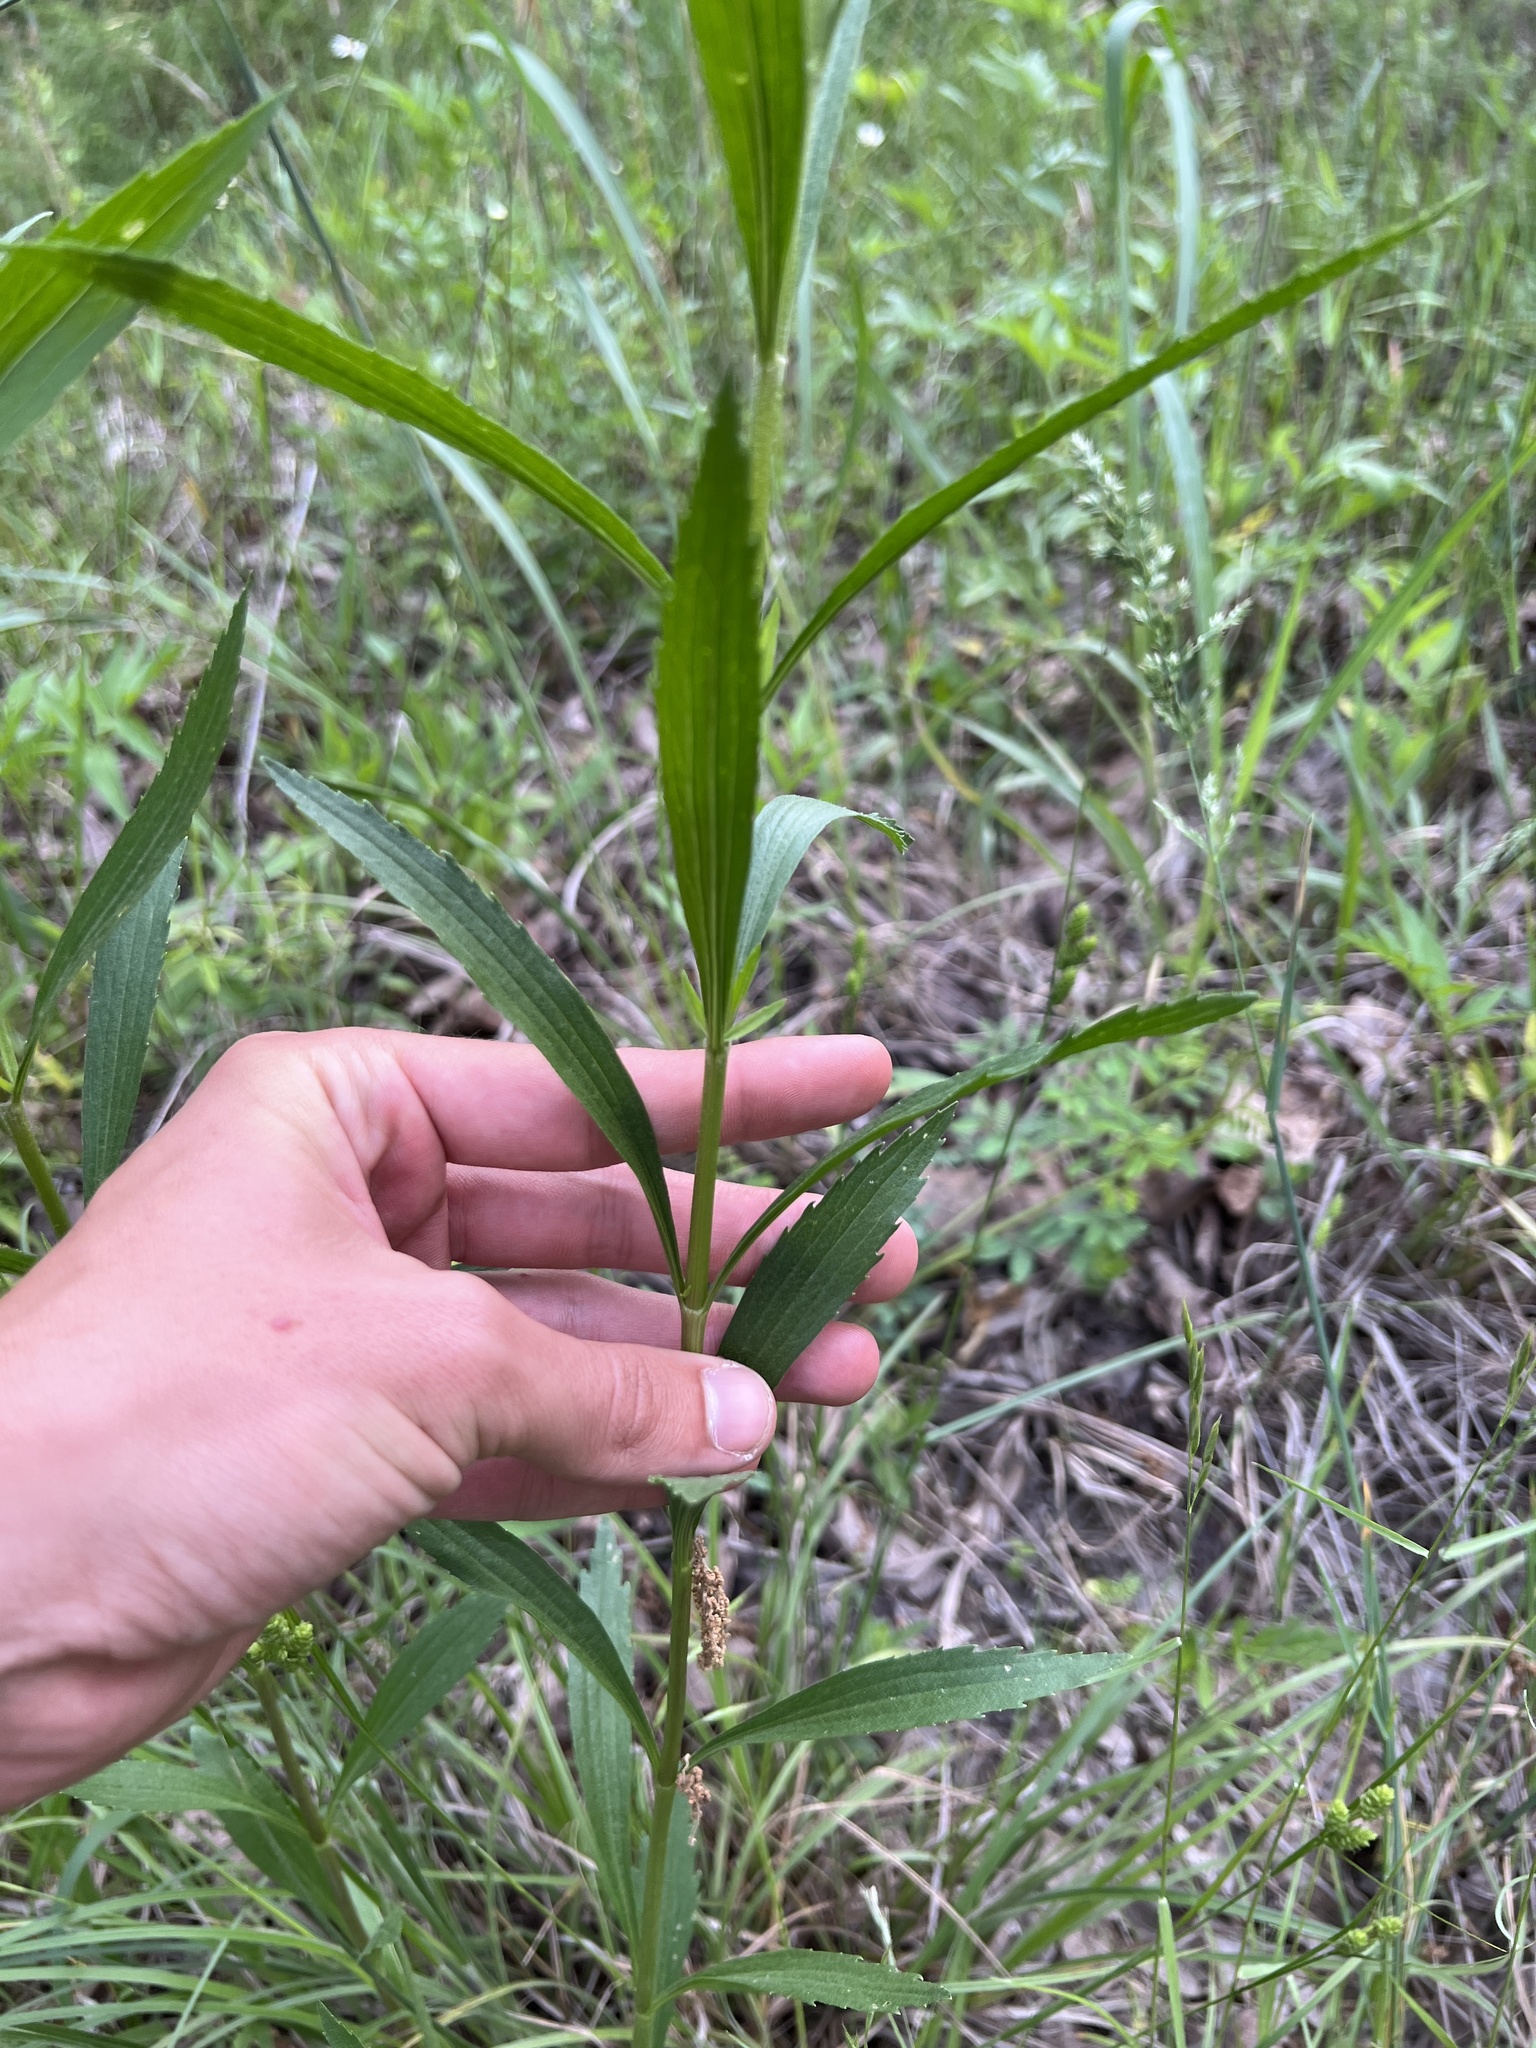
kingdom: Plantae
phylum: Tracheophyta
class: Magnoliopsida
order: Asterales
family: Asteraceae
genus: Eupatorium
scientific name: Eupatorium altissimum
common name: Tall thoroughwort
